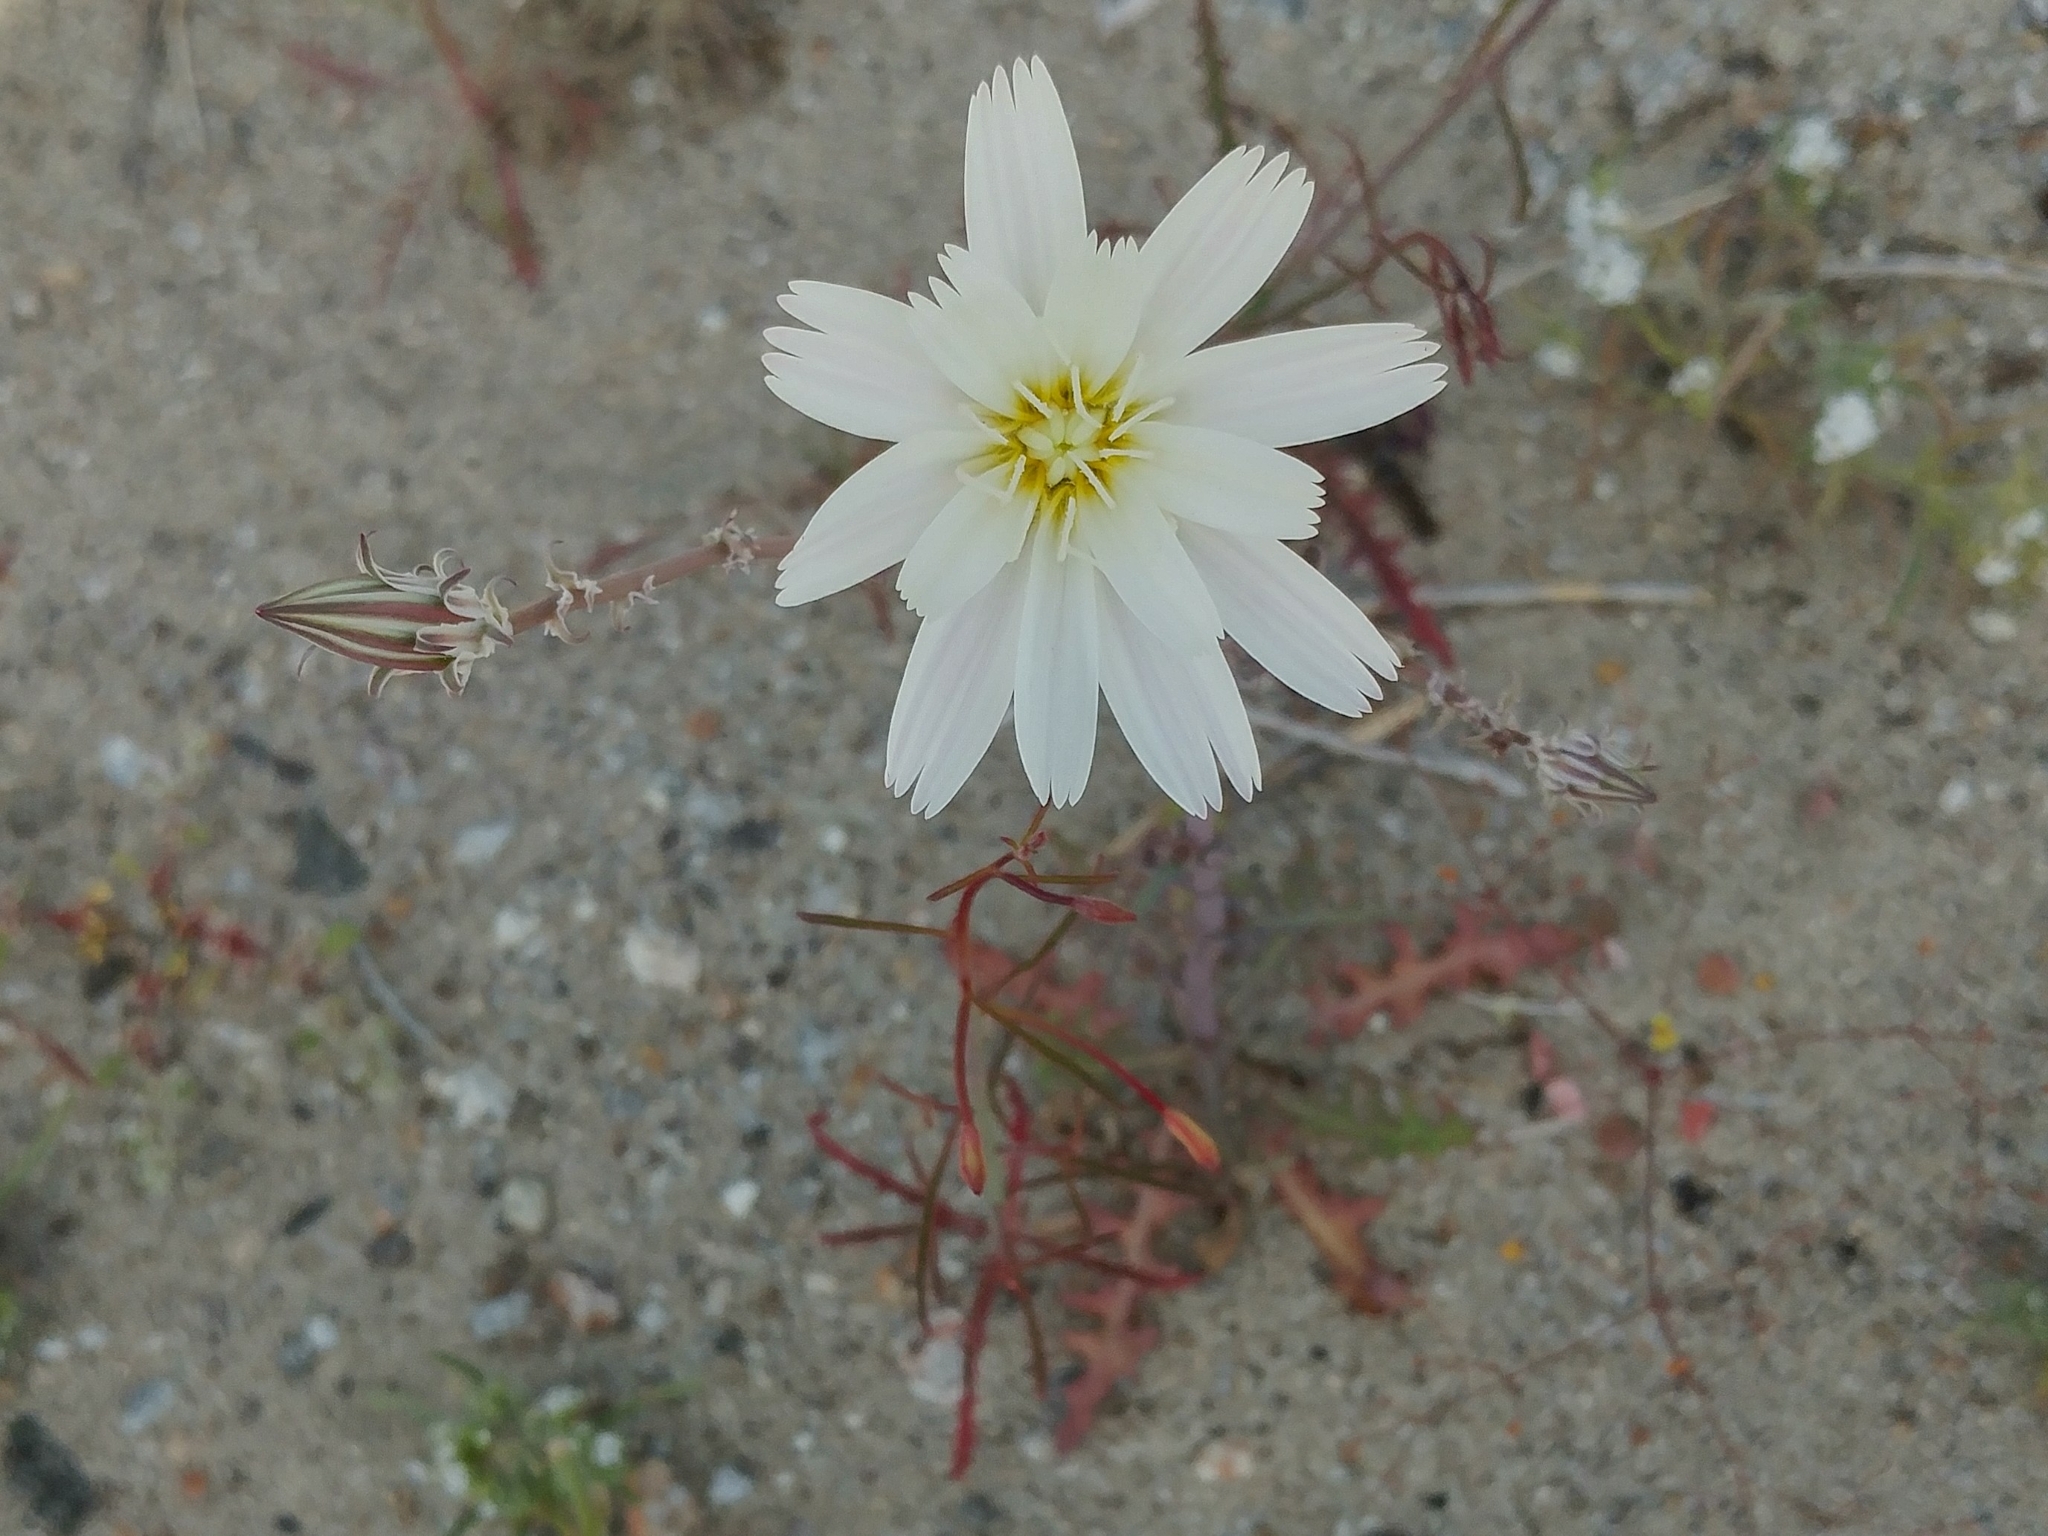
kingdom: Plantae
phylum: Tracheophyta
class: Magnoliopsida
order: Asterales
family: Asteraceae
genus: Rafinesquia
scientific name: Rafinesquia neomexicana
